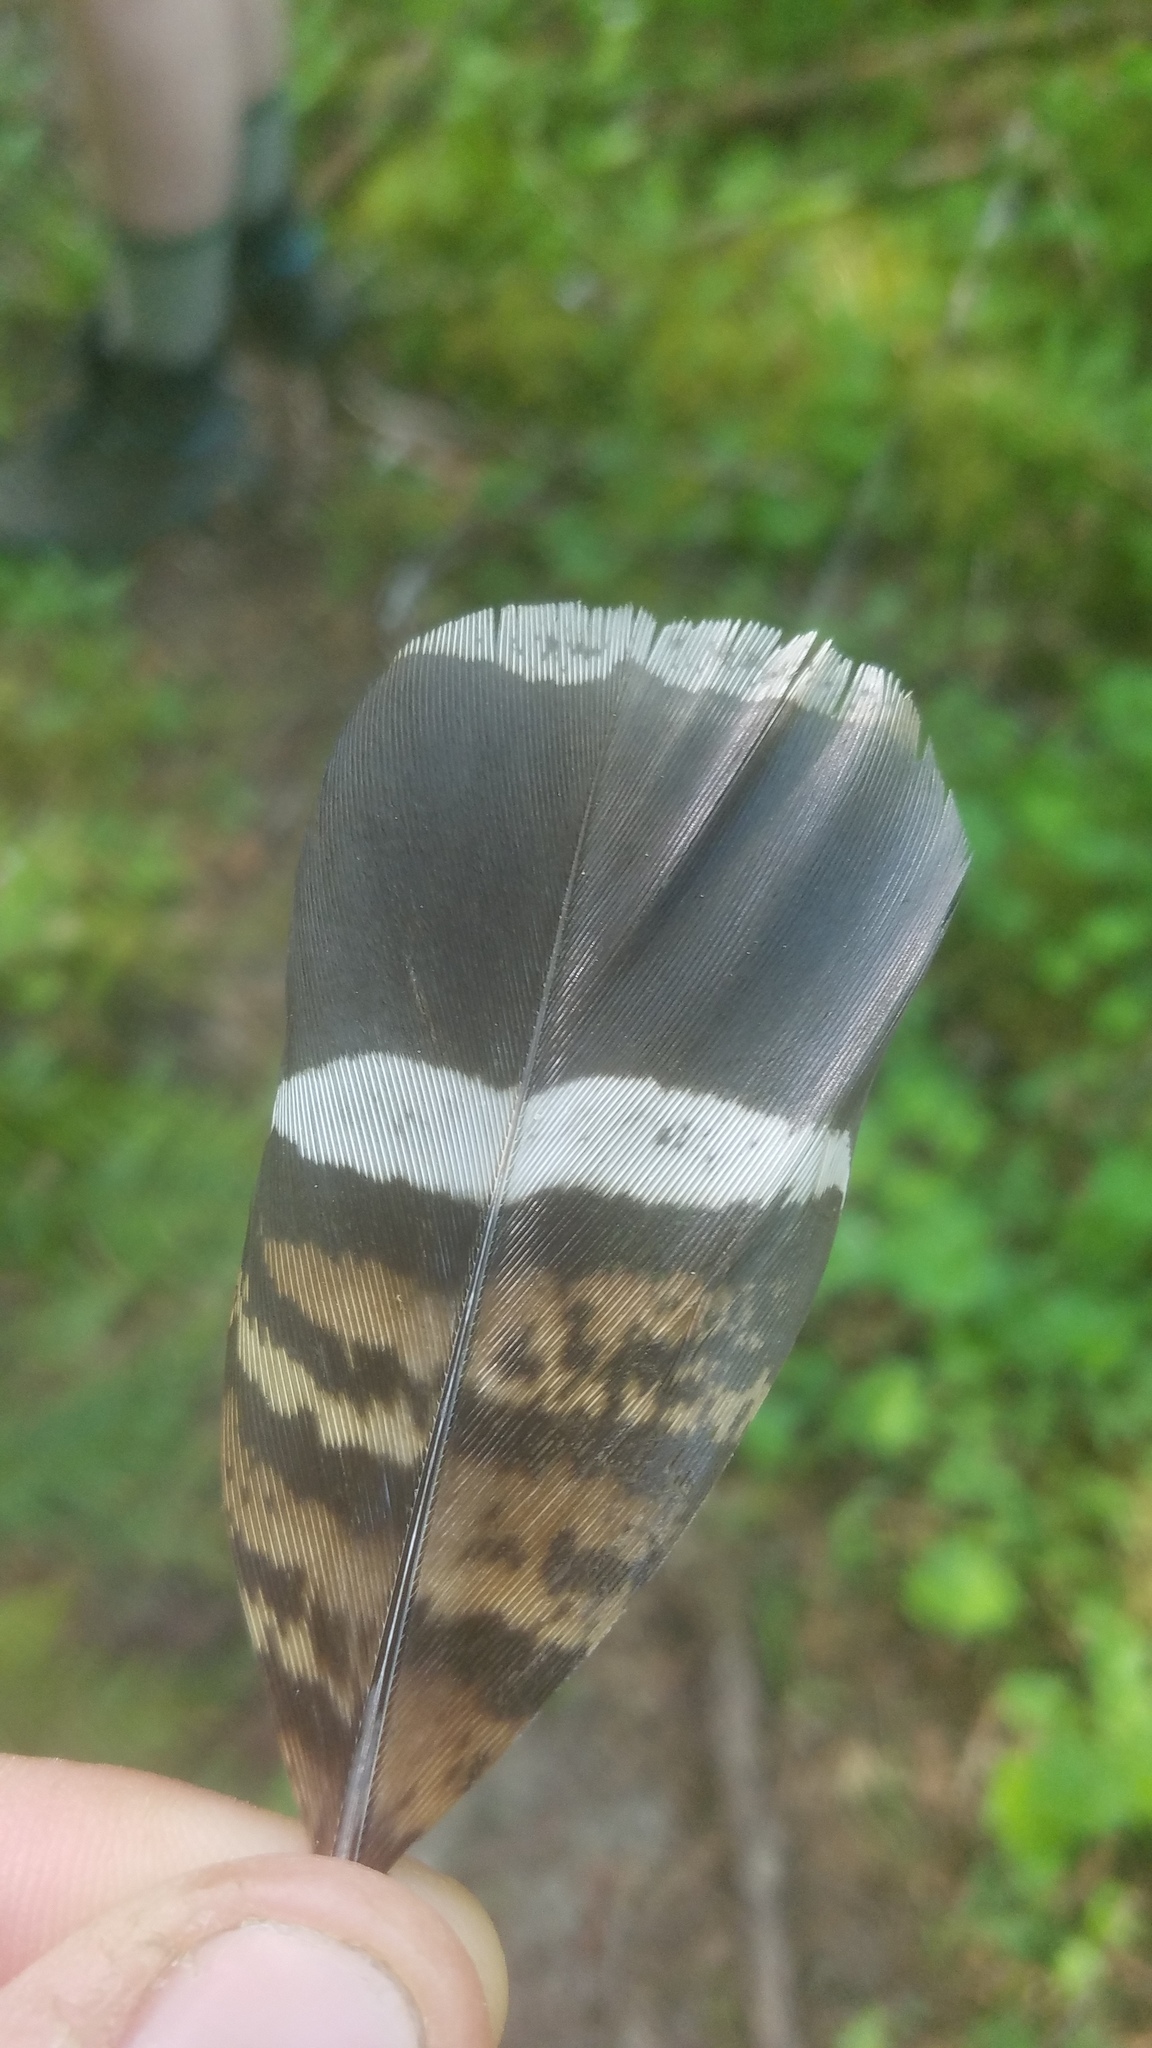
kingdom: Animalia
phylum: Chordata
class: Aves
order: Galliformes
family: Phasianidae
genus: Bonasa
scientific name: Bonasa umbellus
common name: Ruffed grouse
